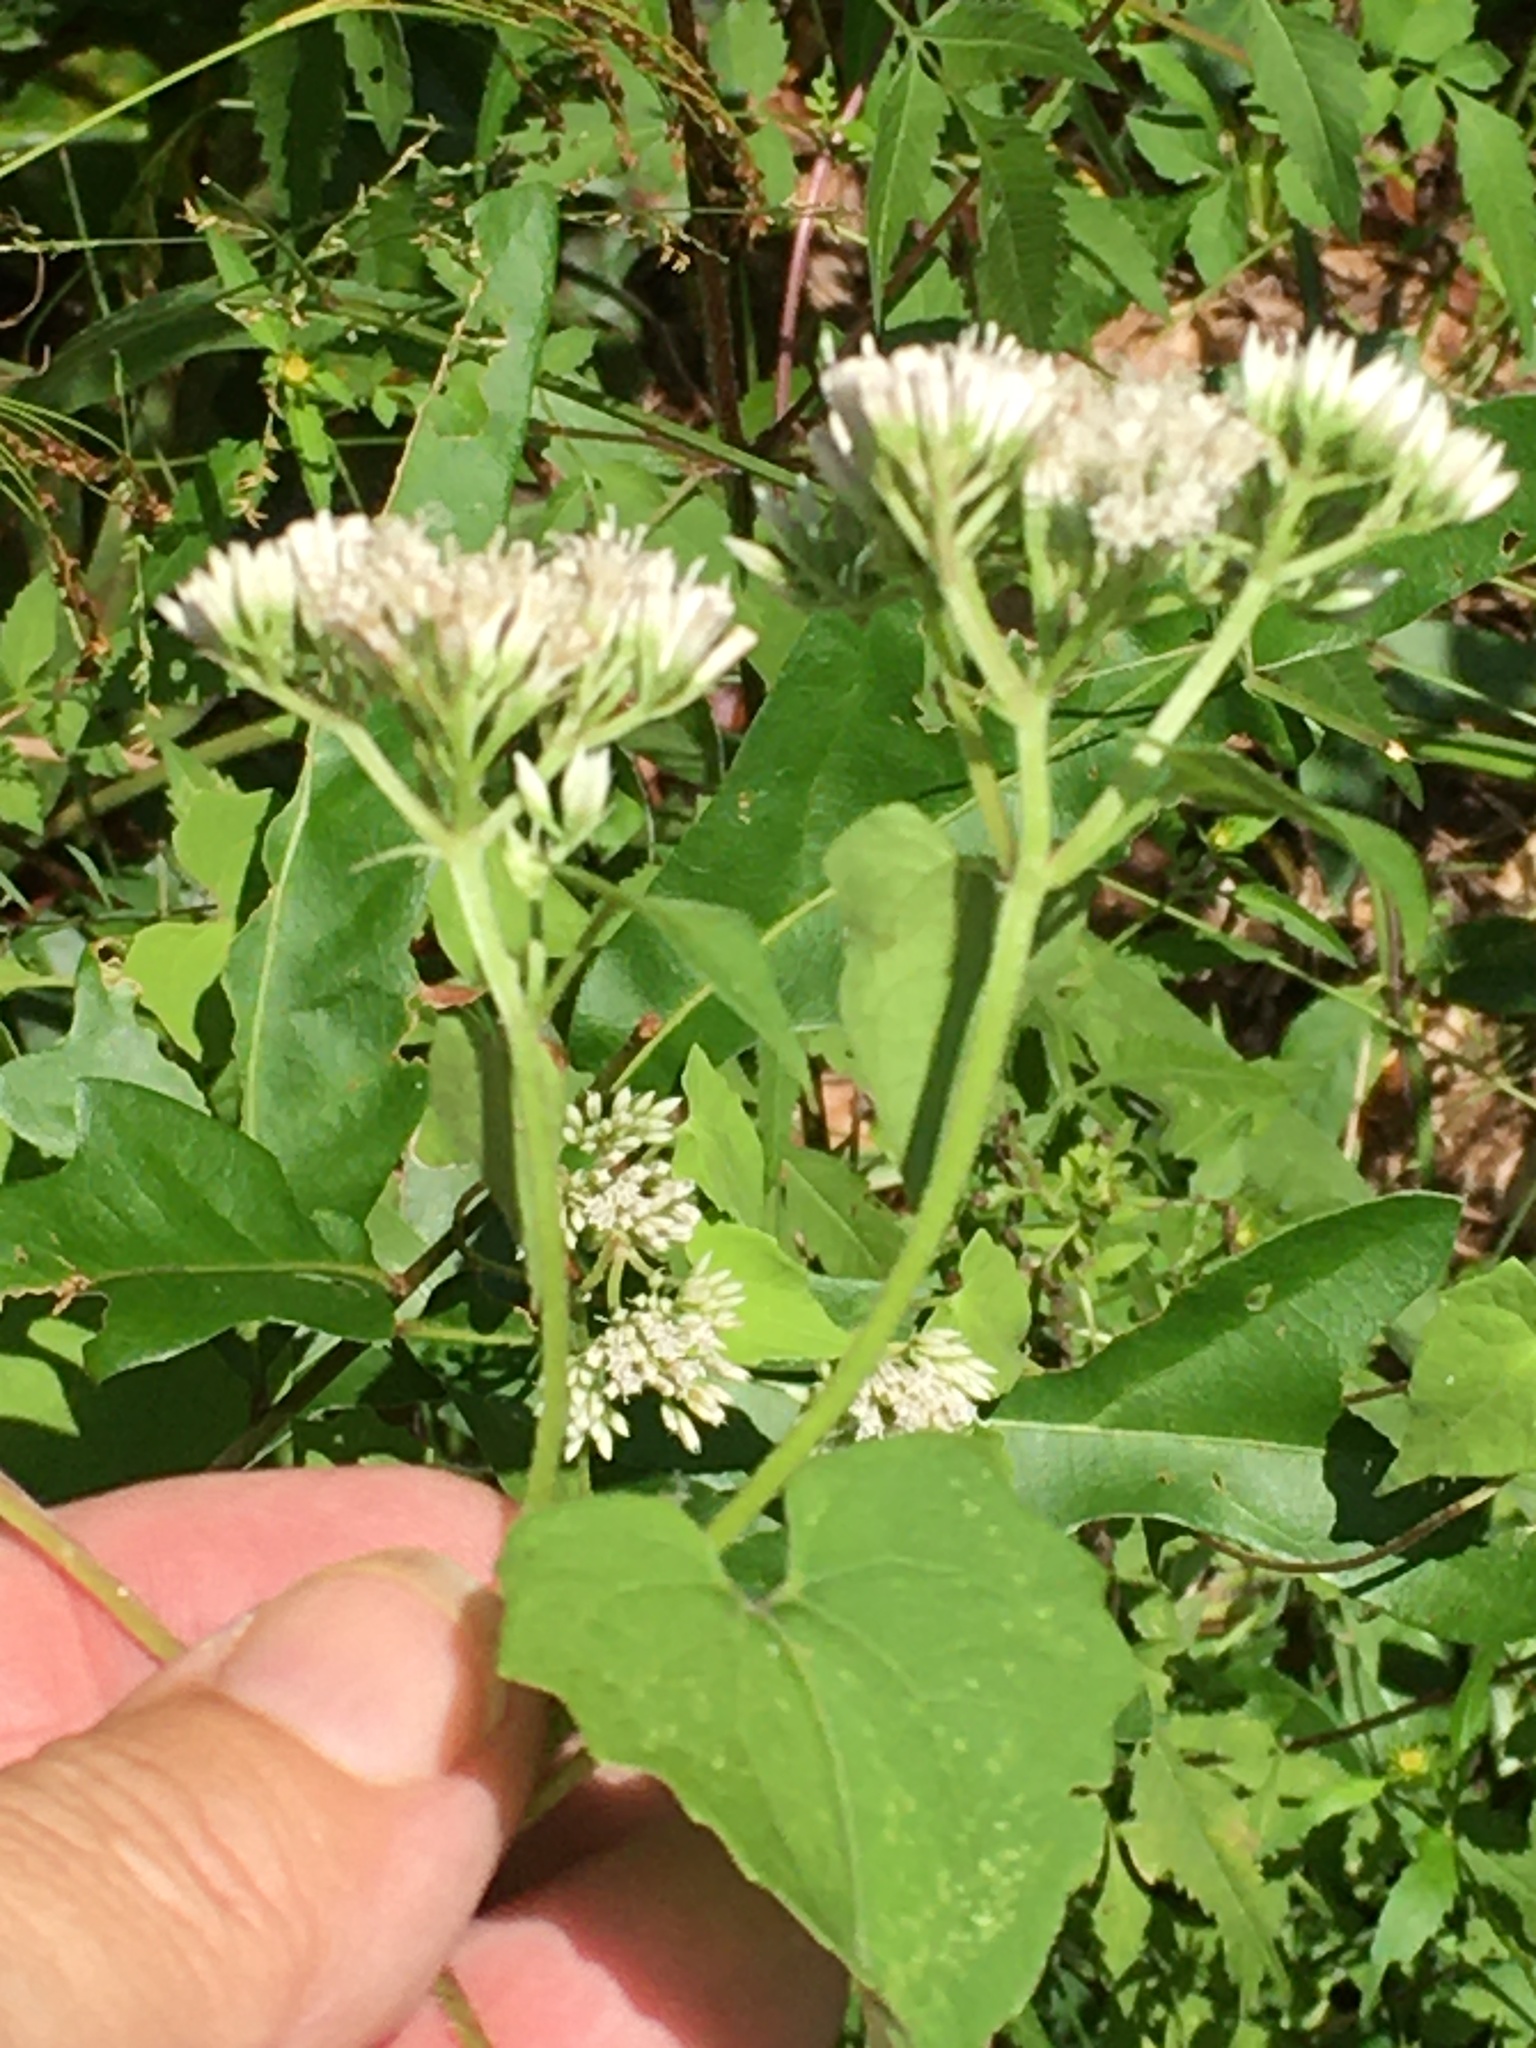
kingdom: Plantae
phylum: Tracheophyta
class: Magnoliopsida
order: Asterales
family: Asteraceae
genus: Mikania
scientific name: Mikania scandens
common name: Climbing hempvine
